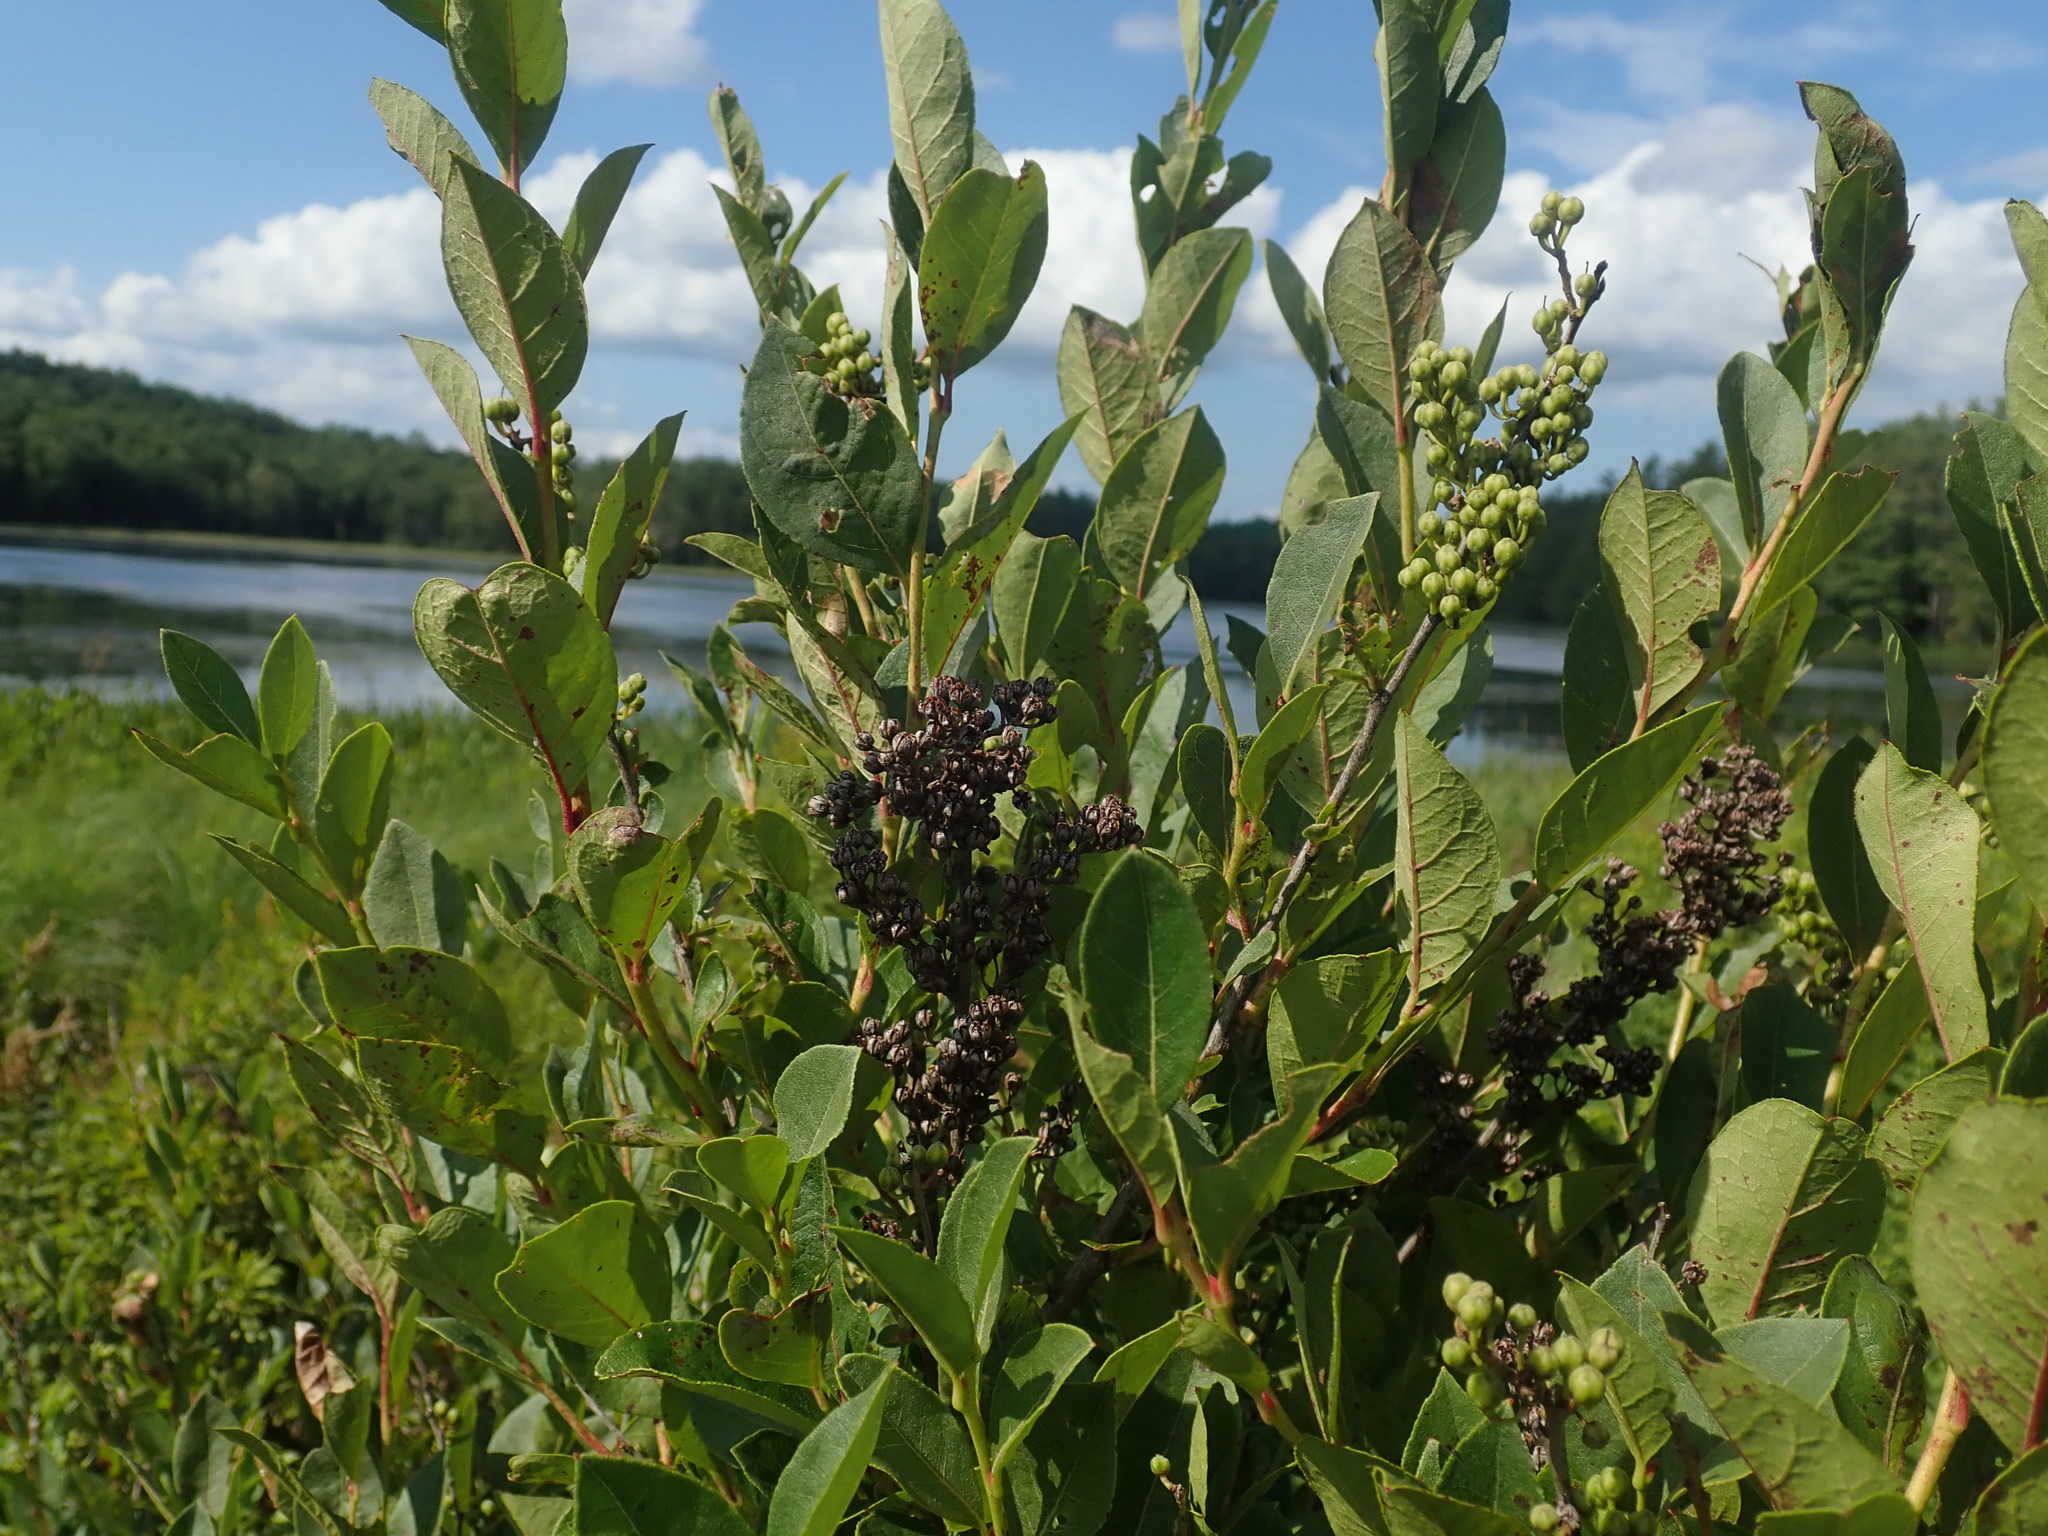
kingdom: Plantae
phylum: Tracheophyta
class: Magnoliopsida
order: Ericales
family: Ericaceae
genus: Lyonia
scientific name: Lyonia ligustrina
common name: Maleberry
